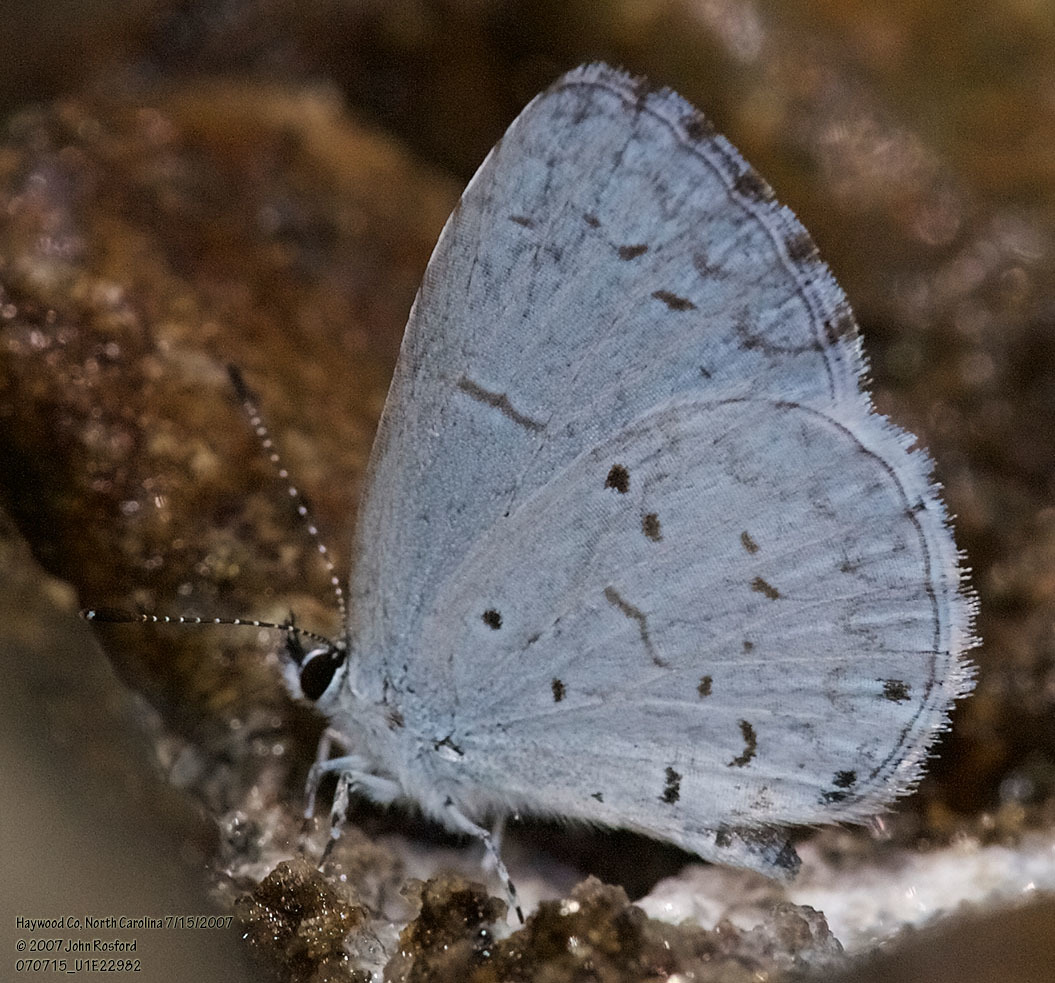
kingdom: Animalia
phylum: Arthropoda
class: Insecta
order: Lepidoptera
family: Lycaenidae
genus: Cyaniris
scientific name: Cyaniris neglecta
